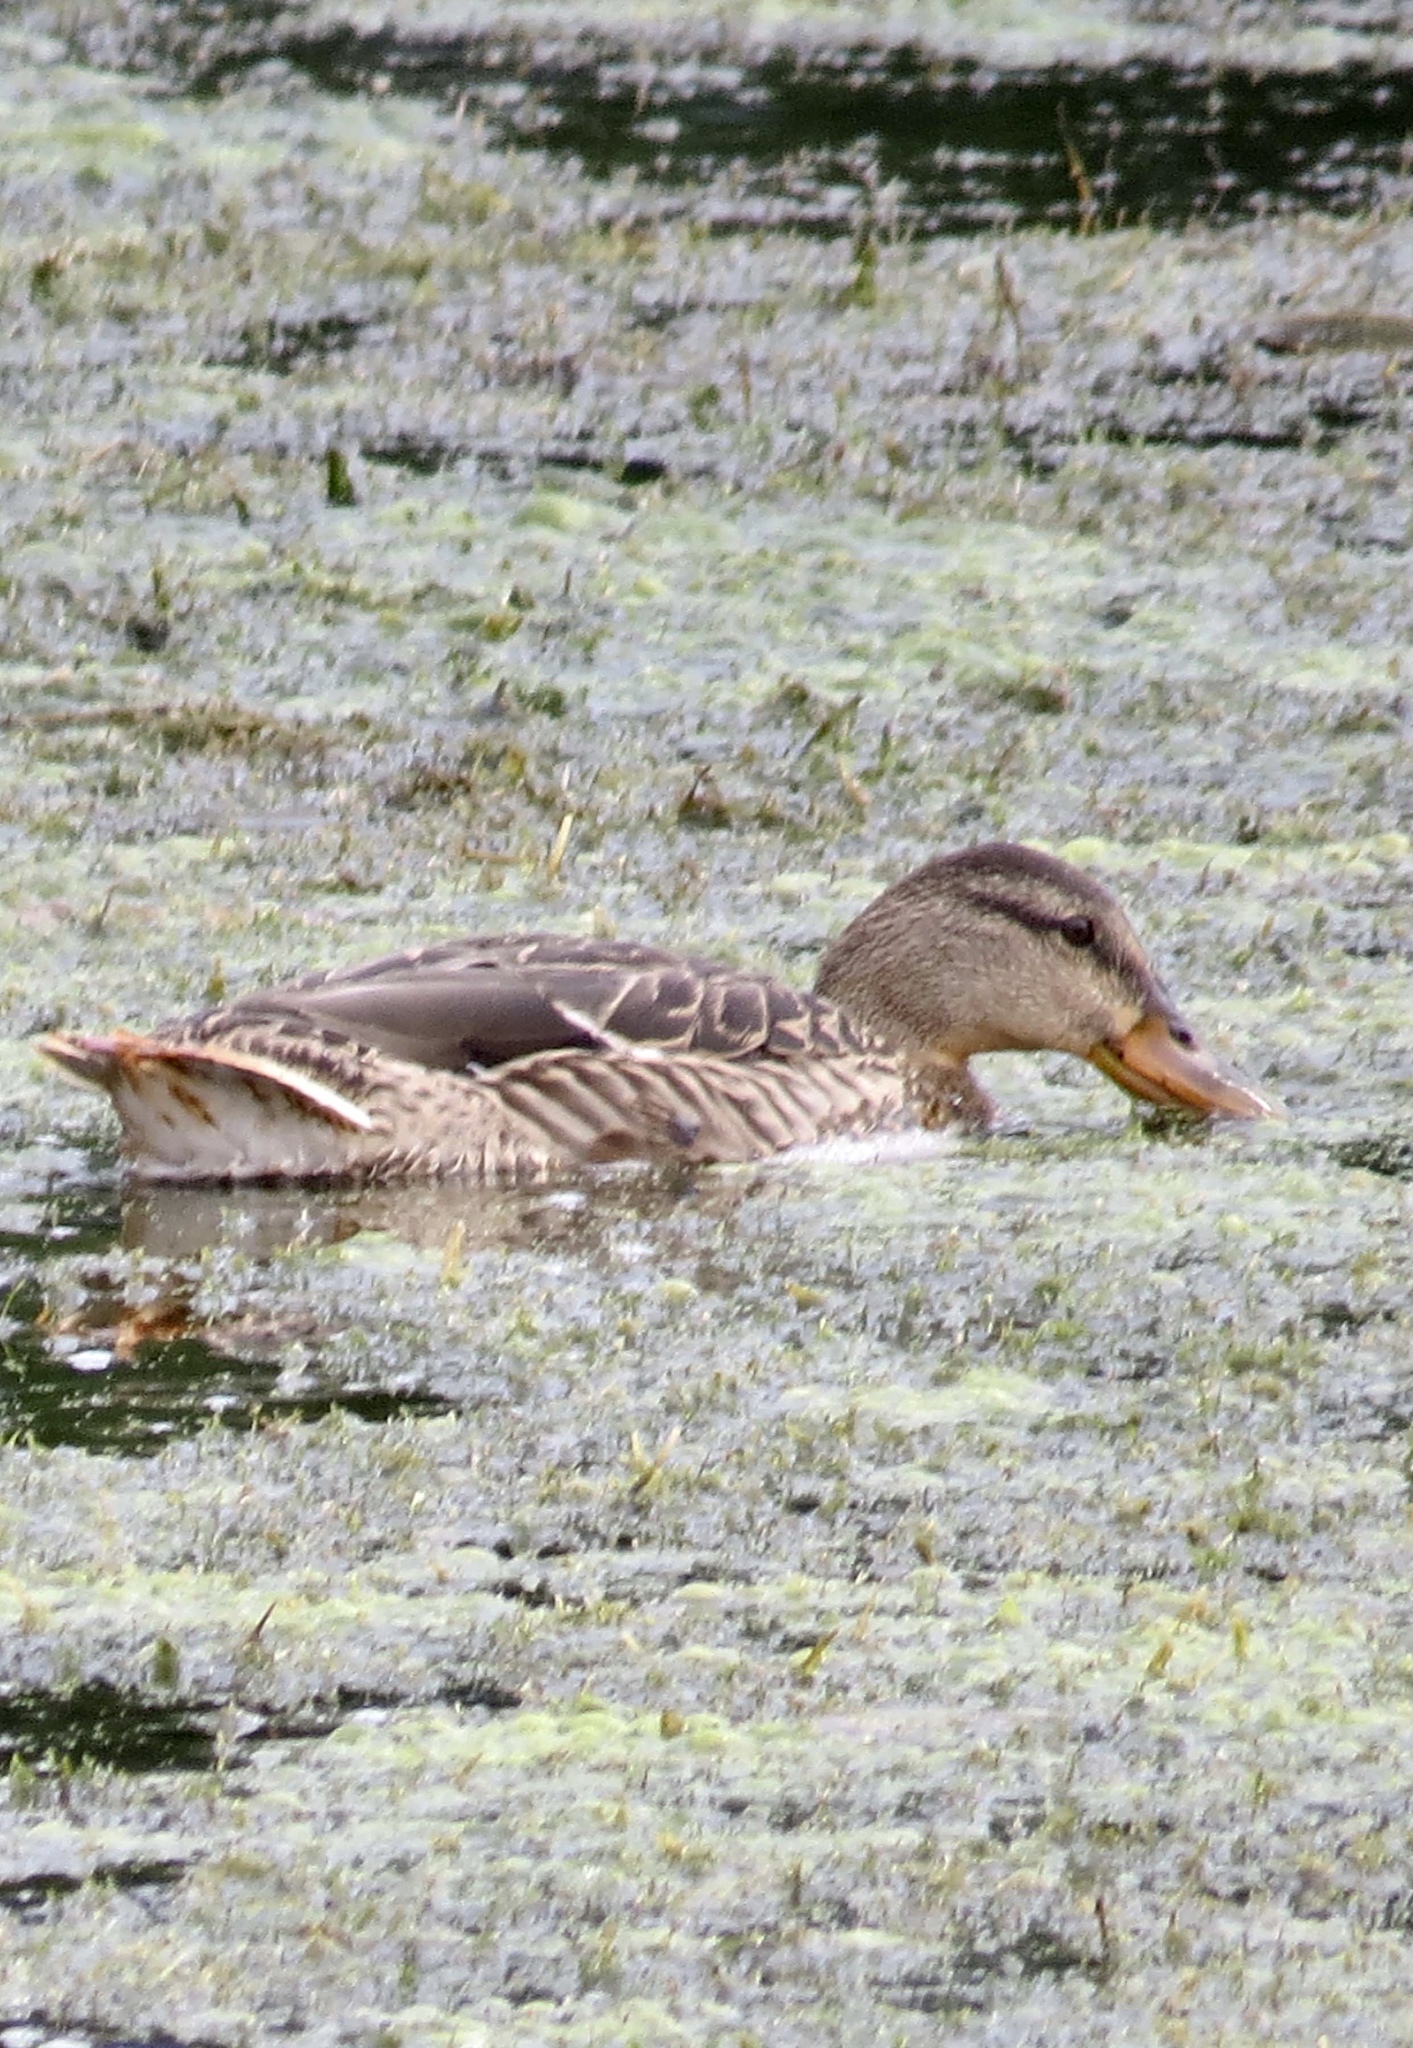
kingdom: Animalia
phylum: Chordata
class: Aves
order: Anseriformes
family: Anatidae
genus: Anas
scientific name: Anas platyrhynchos
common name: Mallard
